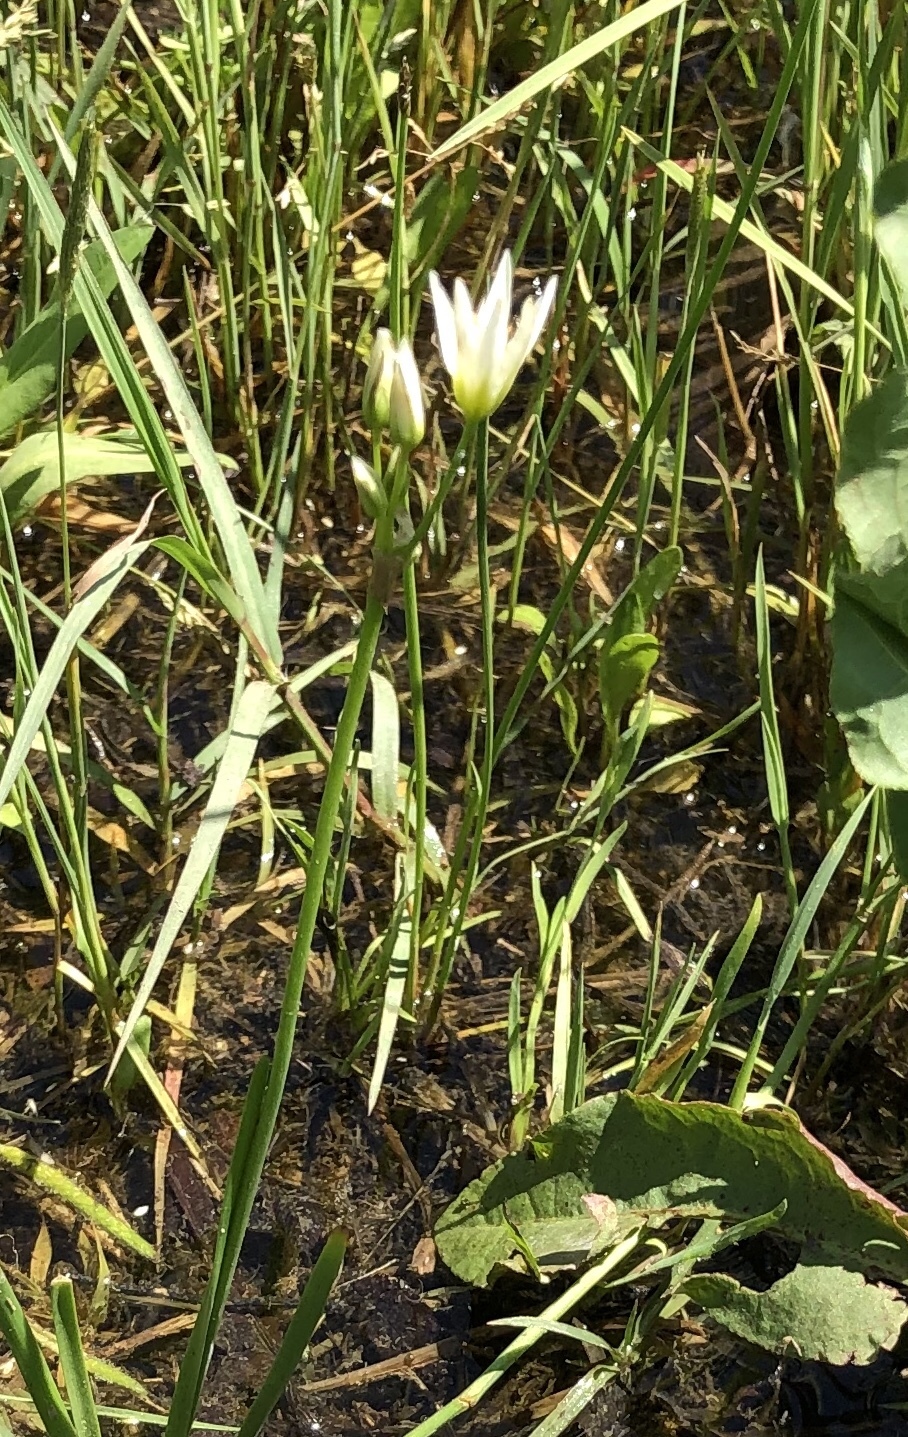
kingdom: Plantae
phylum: Tracheophyta
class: Liliopsida
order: Asparagales
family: Amaryllidaceae
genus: Nothoscordum
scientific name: Nothoscordum bivalve
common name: Crow-poison
